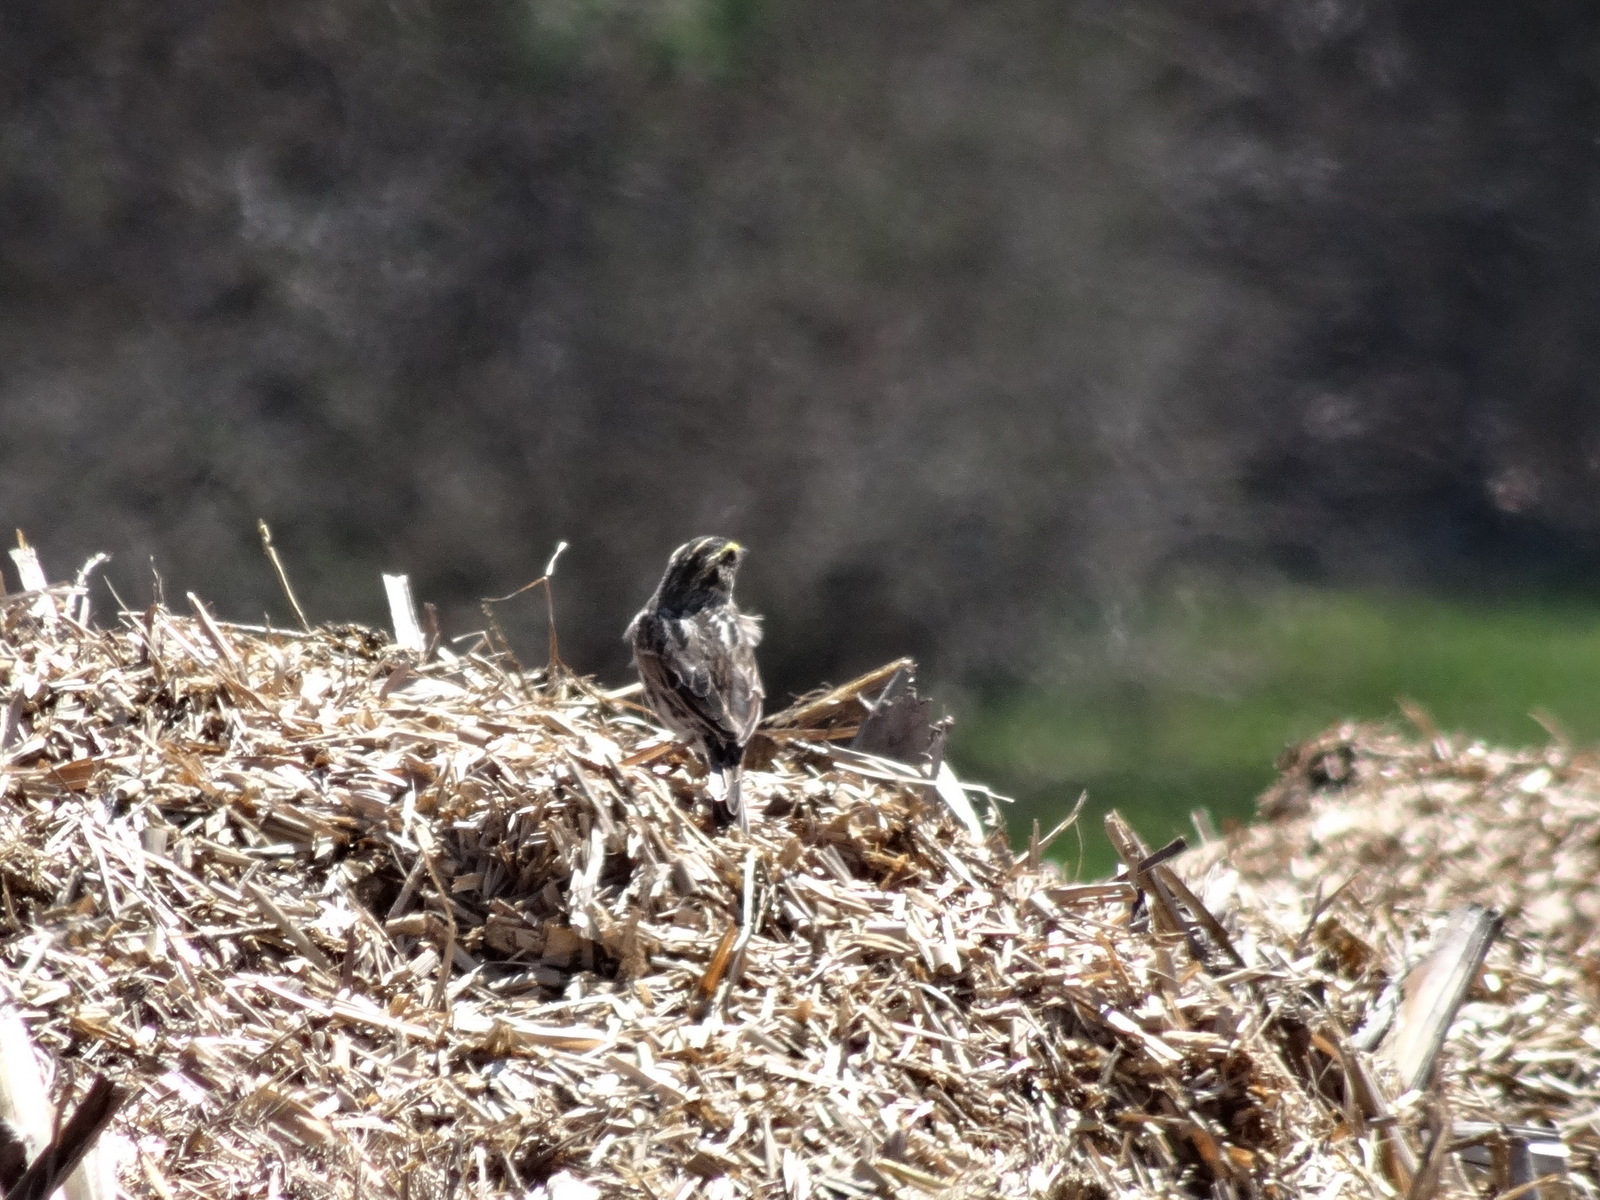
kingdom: Animalia
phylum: Chordata
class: Aves
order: Passeriformes
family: Passerellidae
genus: Passerculus
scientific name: Passerculus sandwichensis
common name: Savannah sparrow
